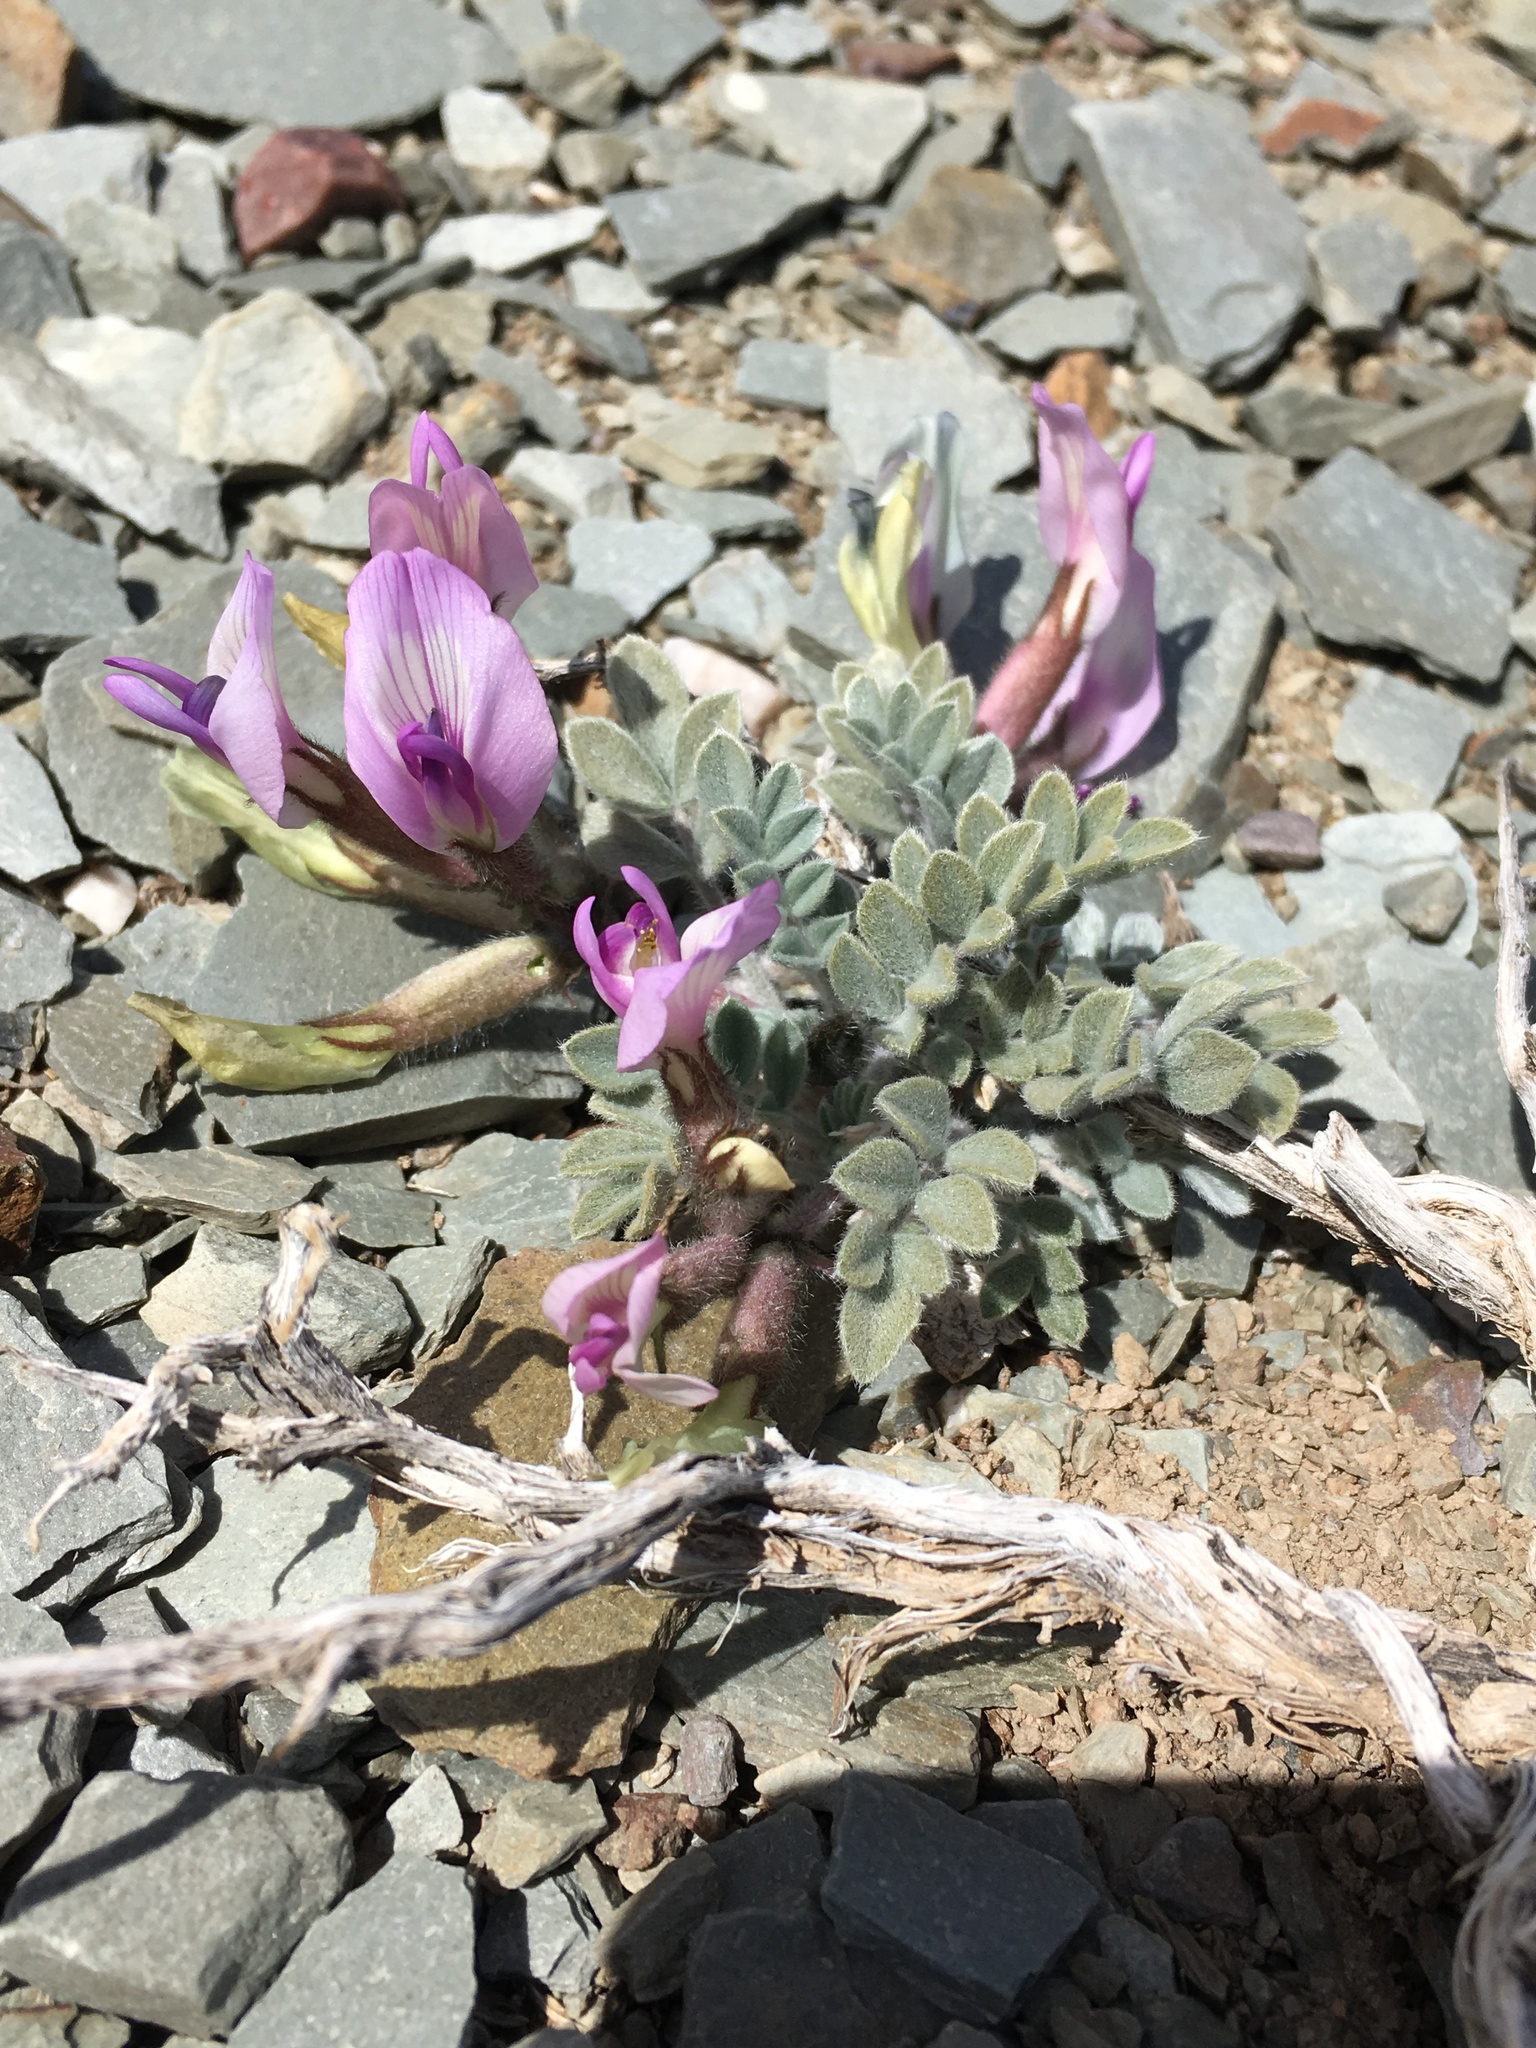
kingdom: Plantae
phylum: Tracheophyta
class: Magnoliopsida
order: Fabales
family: Fabaceae
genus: Astragalus
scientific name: Astragalus newberryi
